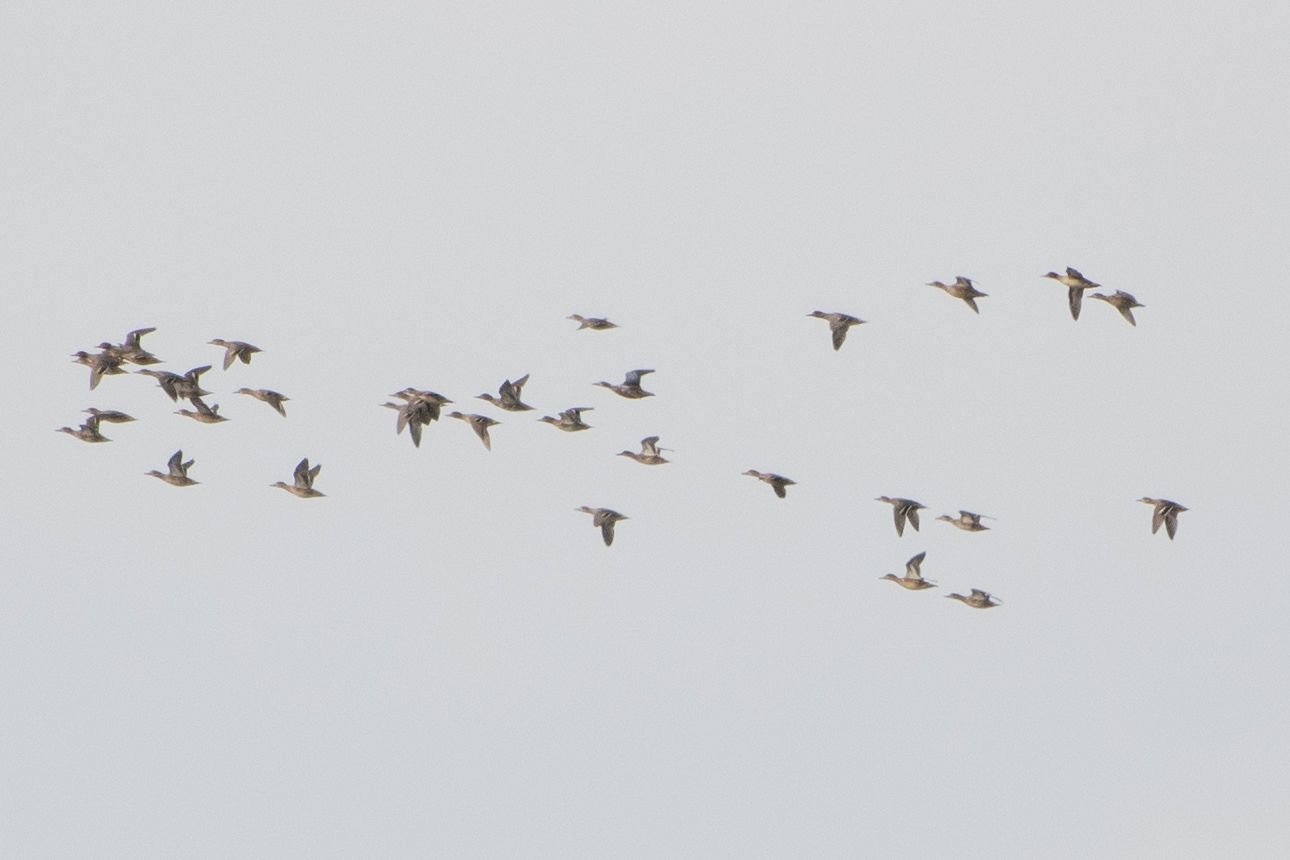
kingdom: Animalia
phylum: Chordata
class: Aves
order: Anseriformes
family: Anatidae
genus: Anas
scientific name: Anas crecca
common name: Eurasian teal
